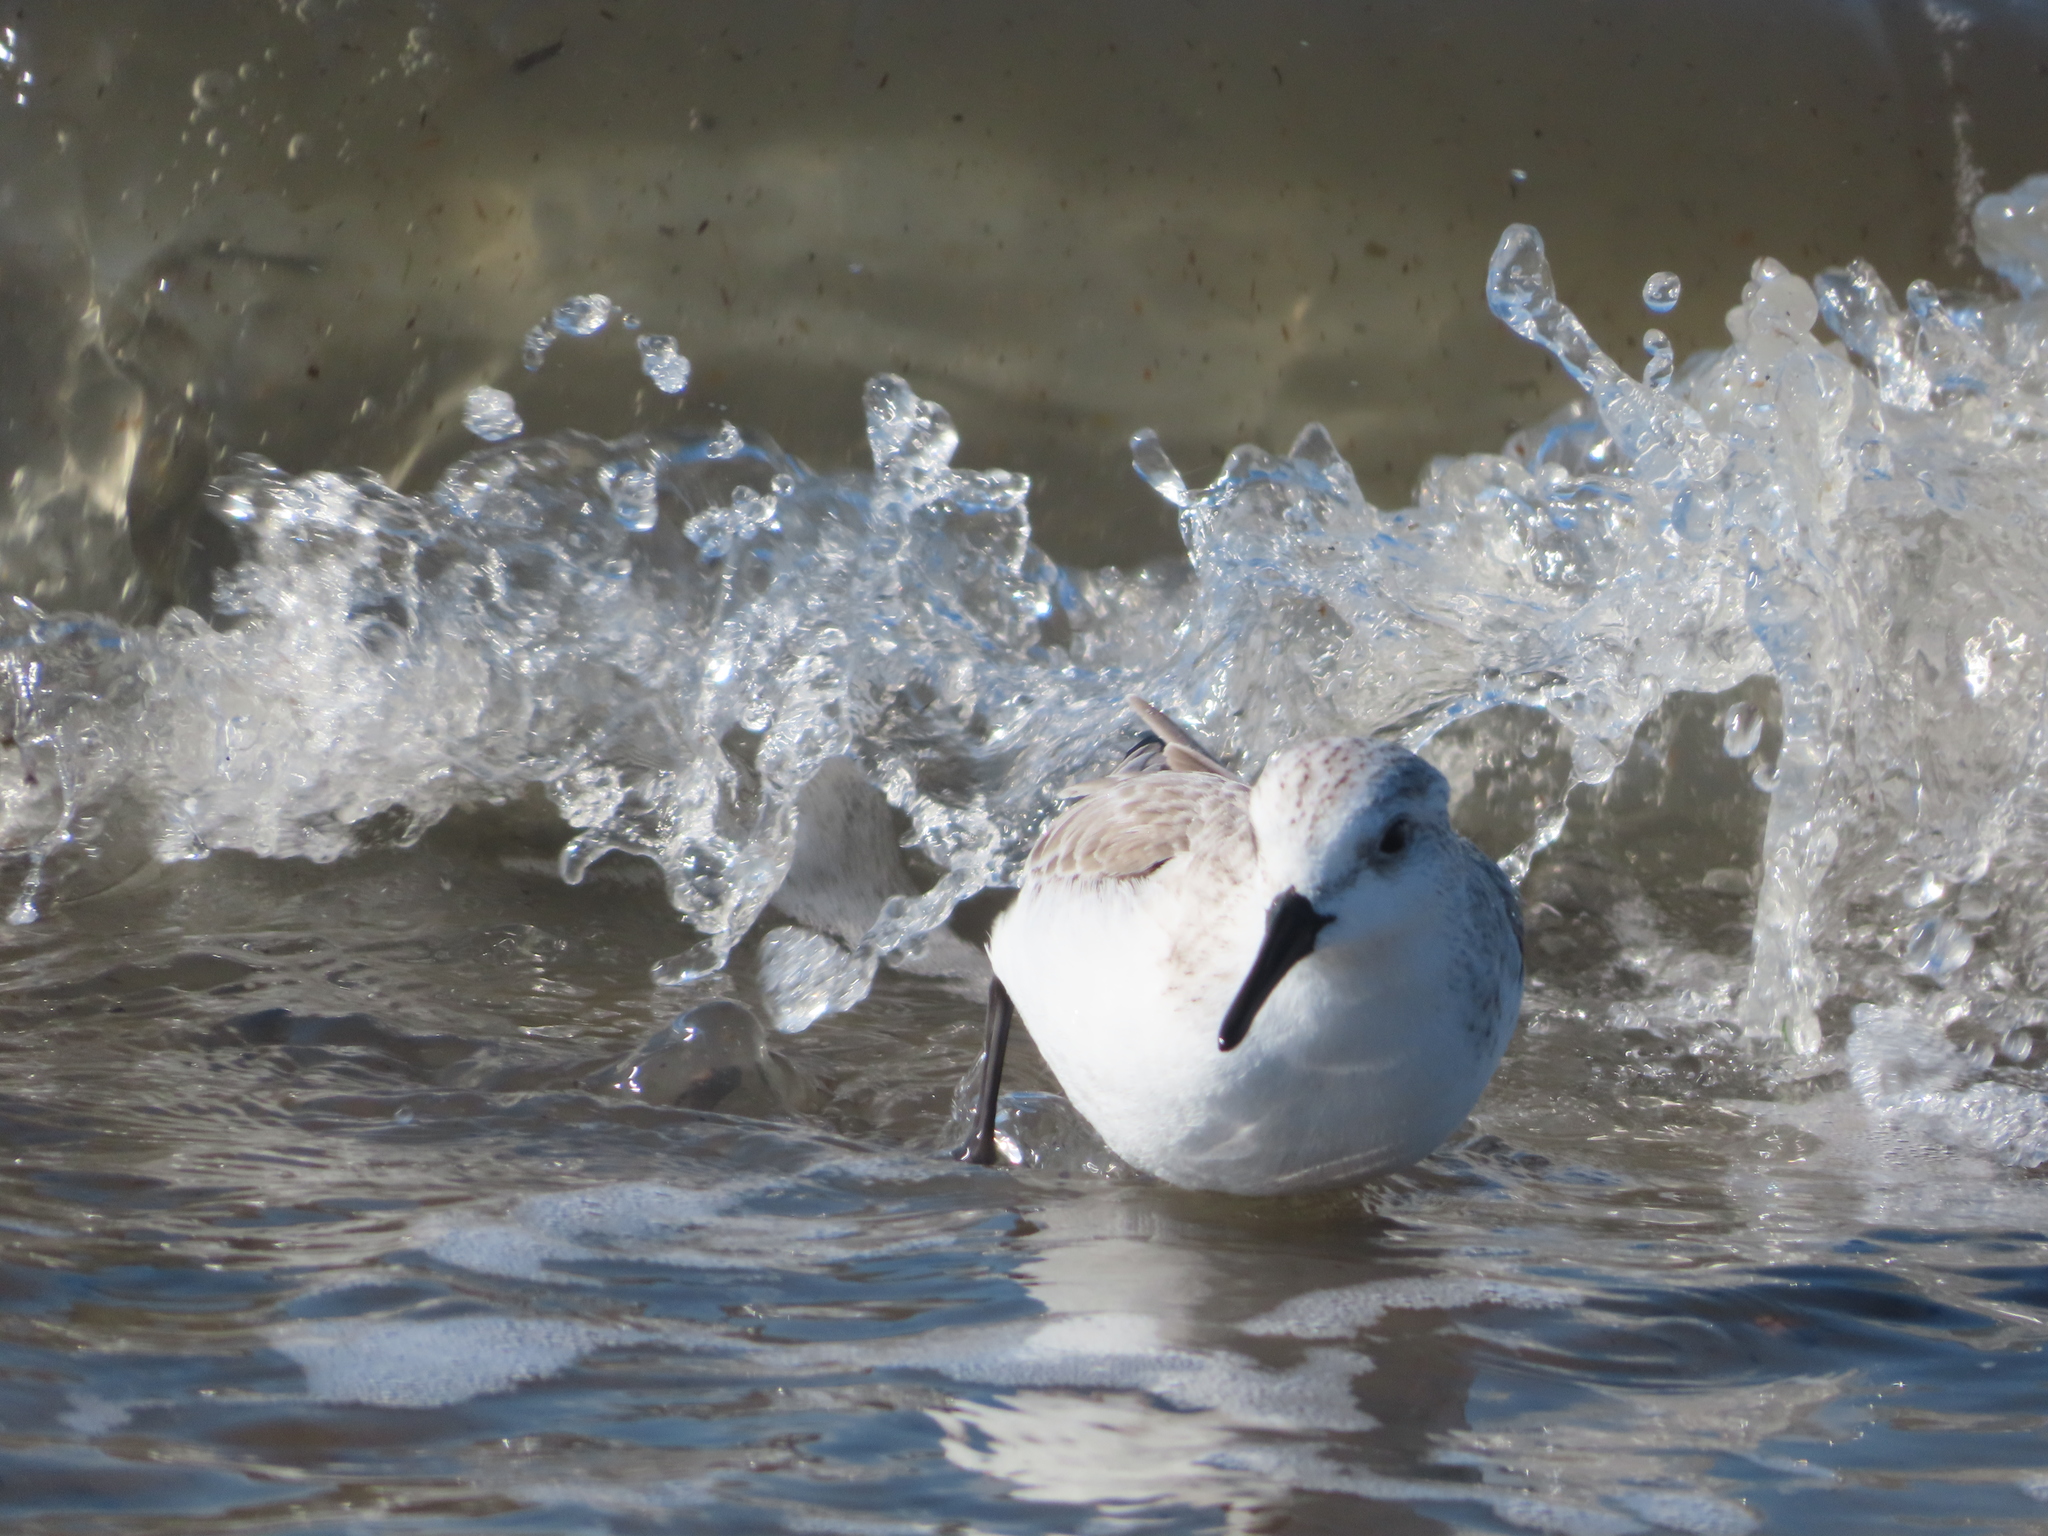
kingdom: Animalia
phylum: Chordata
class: Aves
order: Charadriiformes
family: Scolopacidae
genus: Calidris
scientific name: Calidris alba
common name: Sanderling
